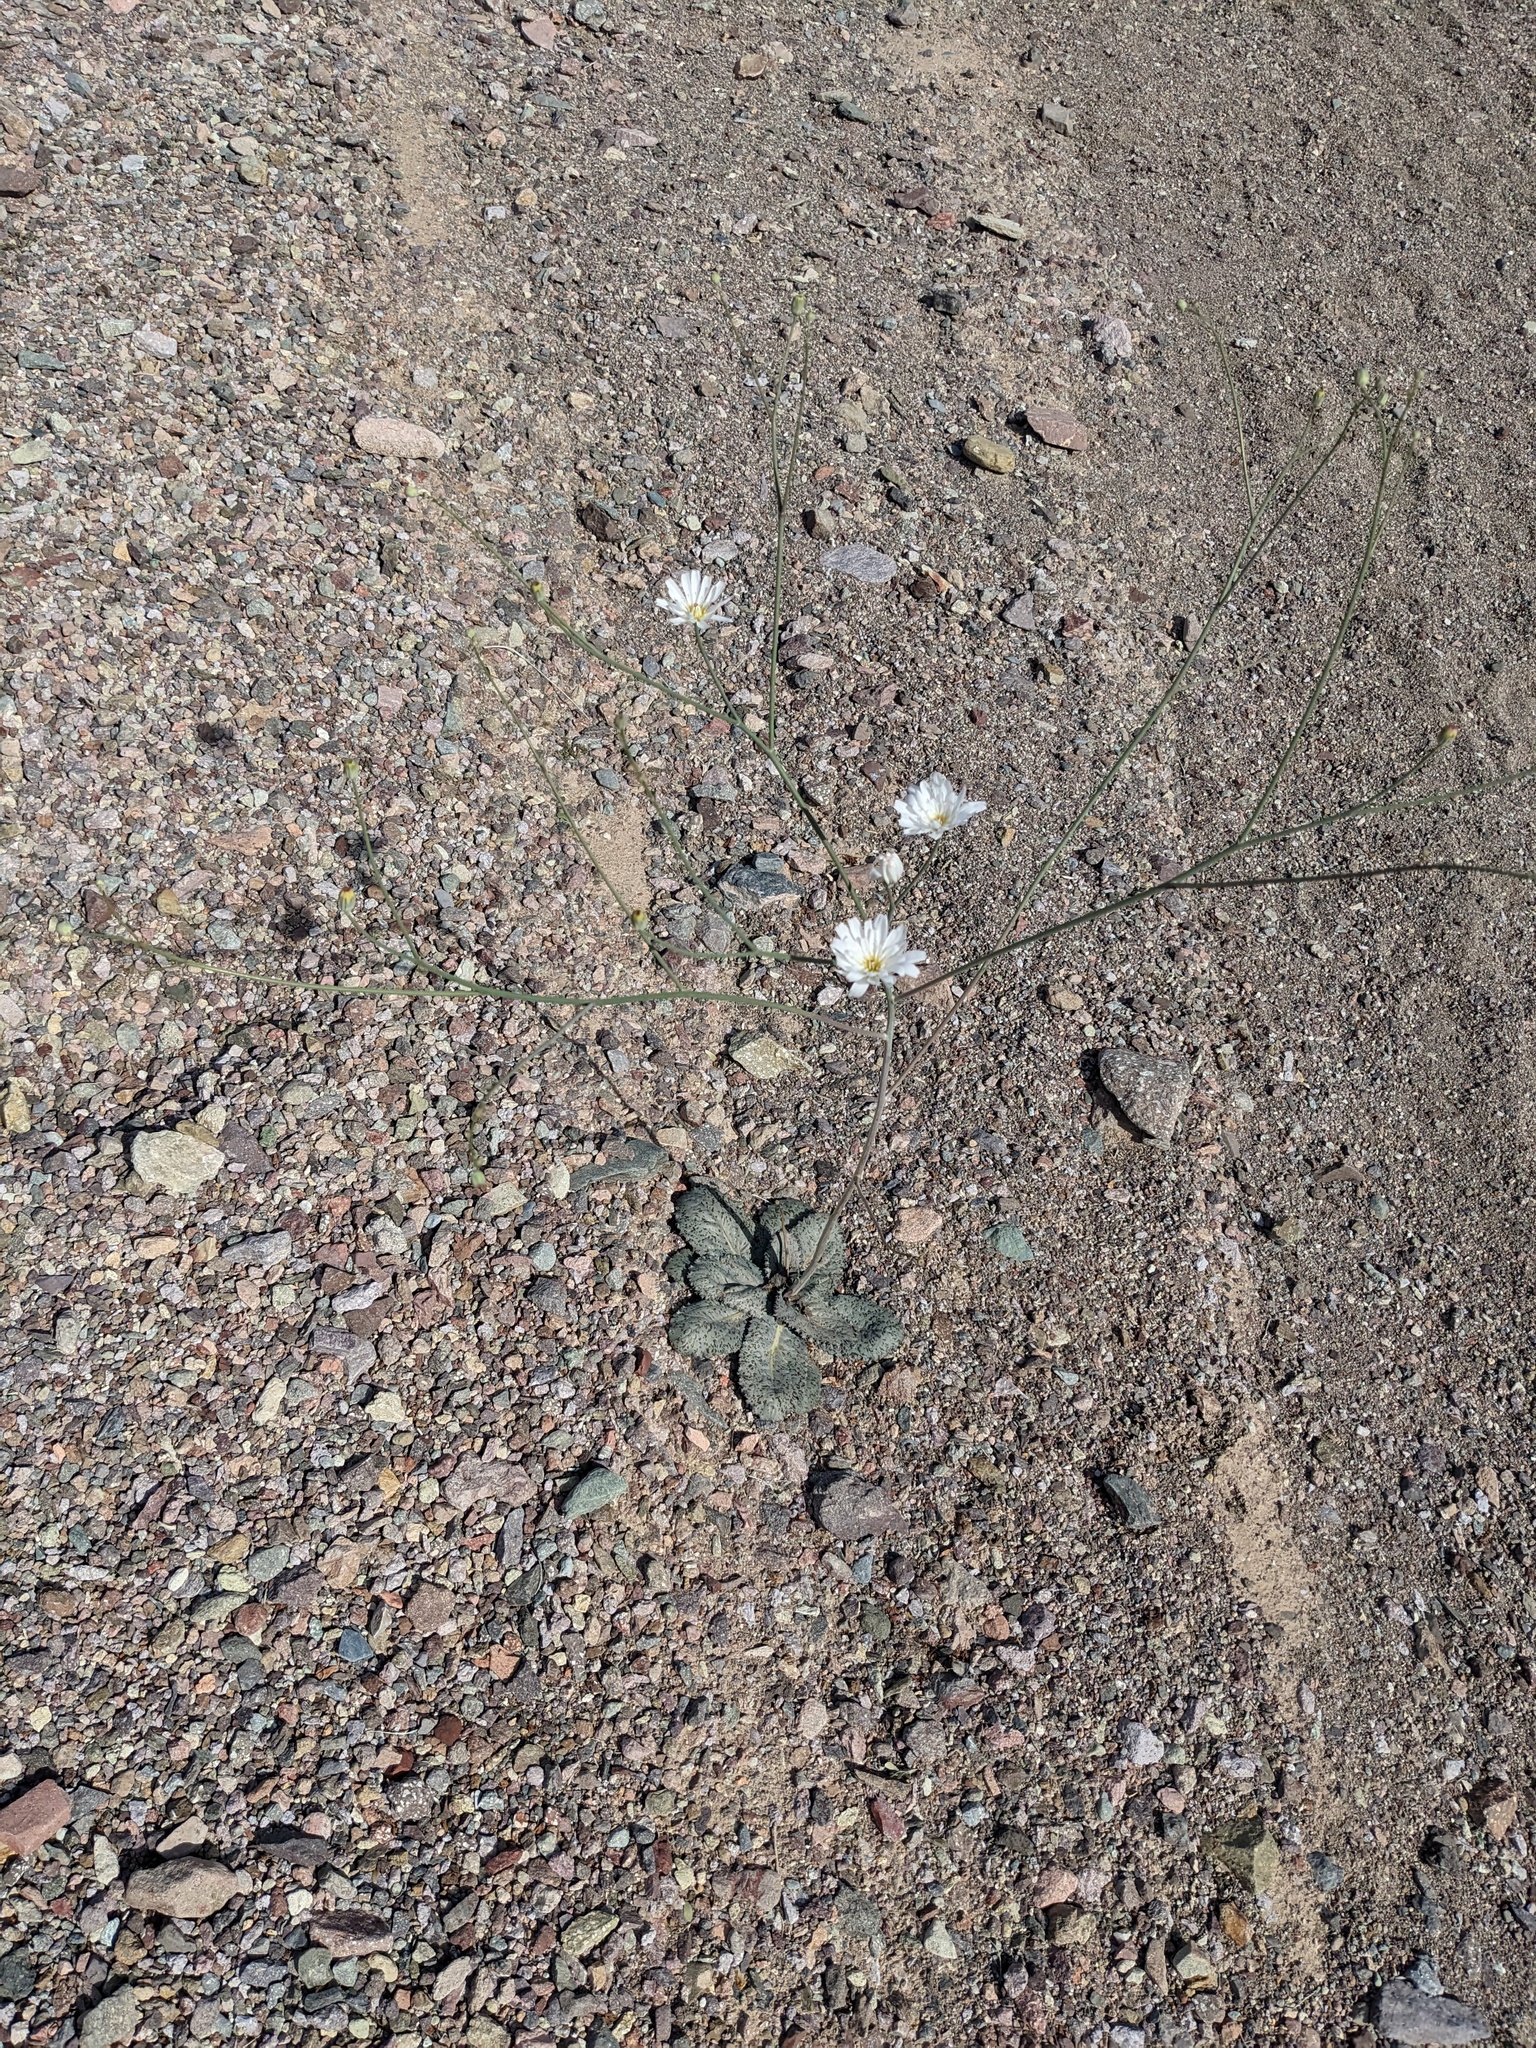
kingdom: Plantae
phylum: Tracheophyta
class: Magnoliopsida
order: Asterales
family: Asteraceae
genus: Atrichoseris
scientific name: Atrichoseris platyphylla
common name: Tobaccoweed
